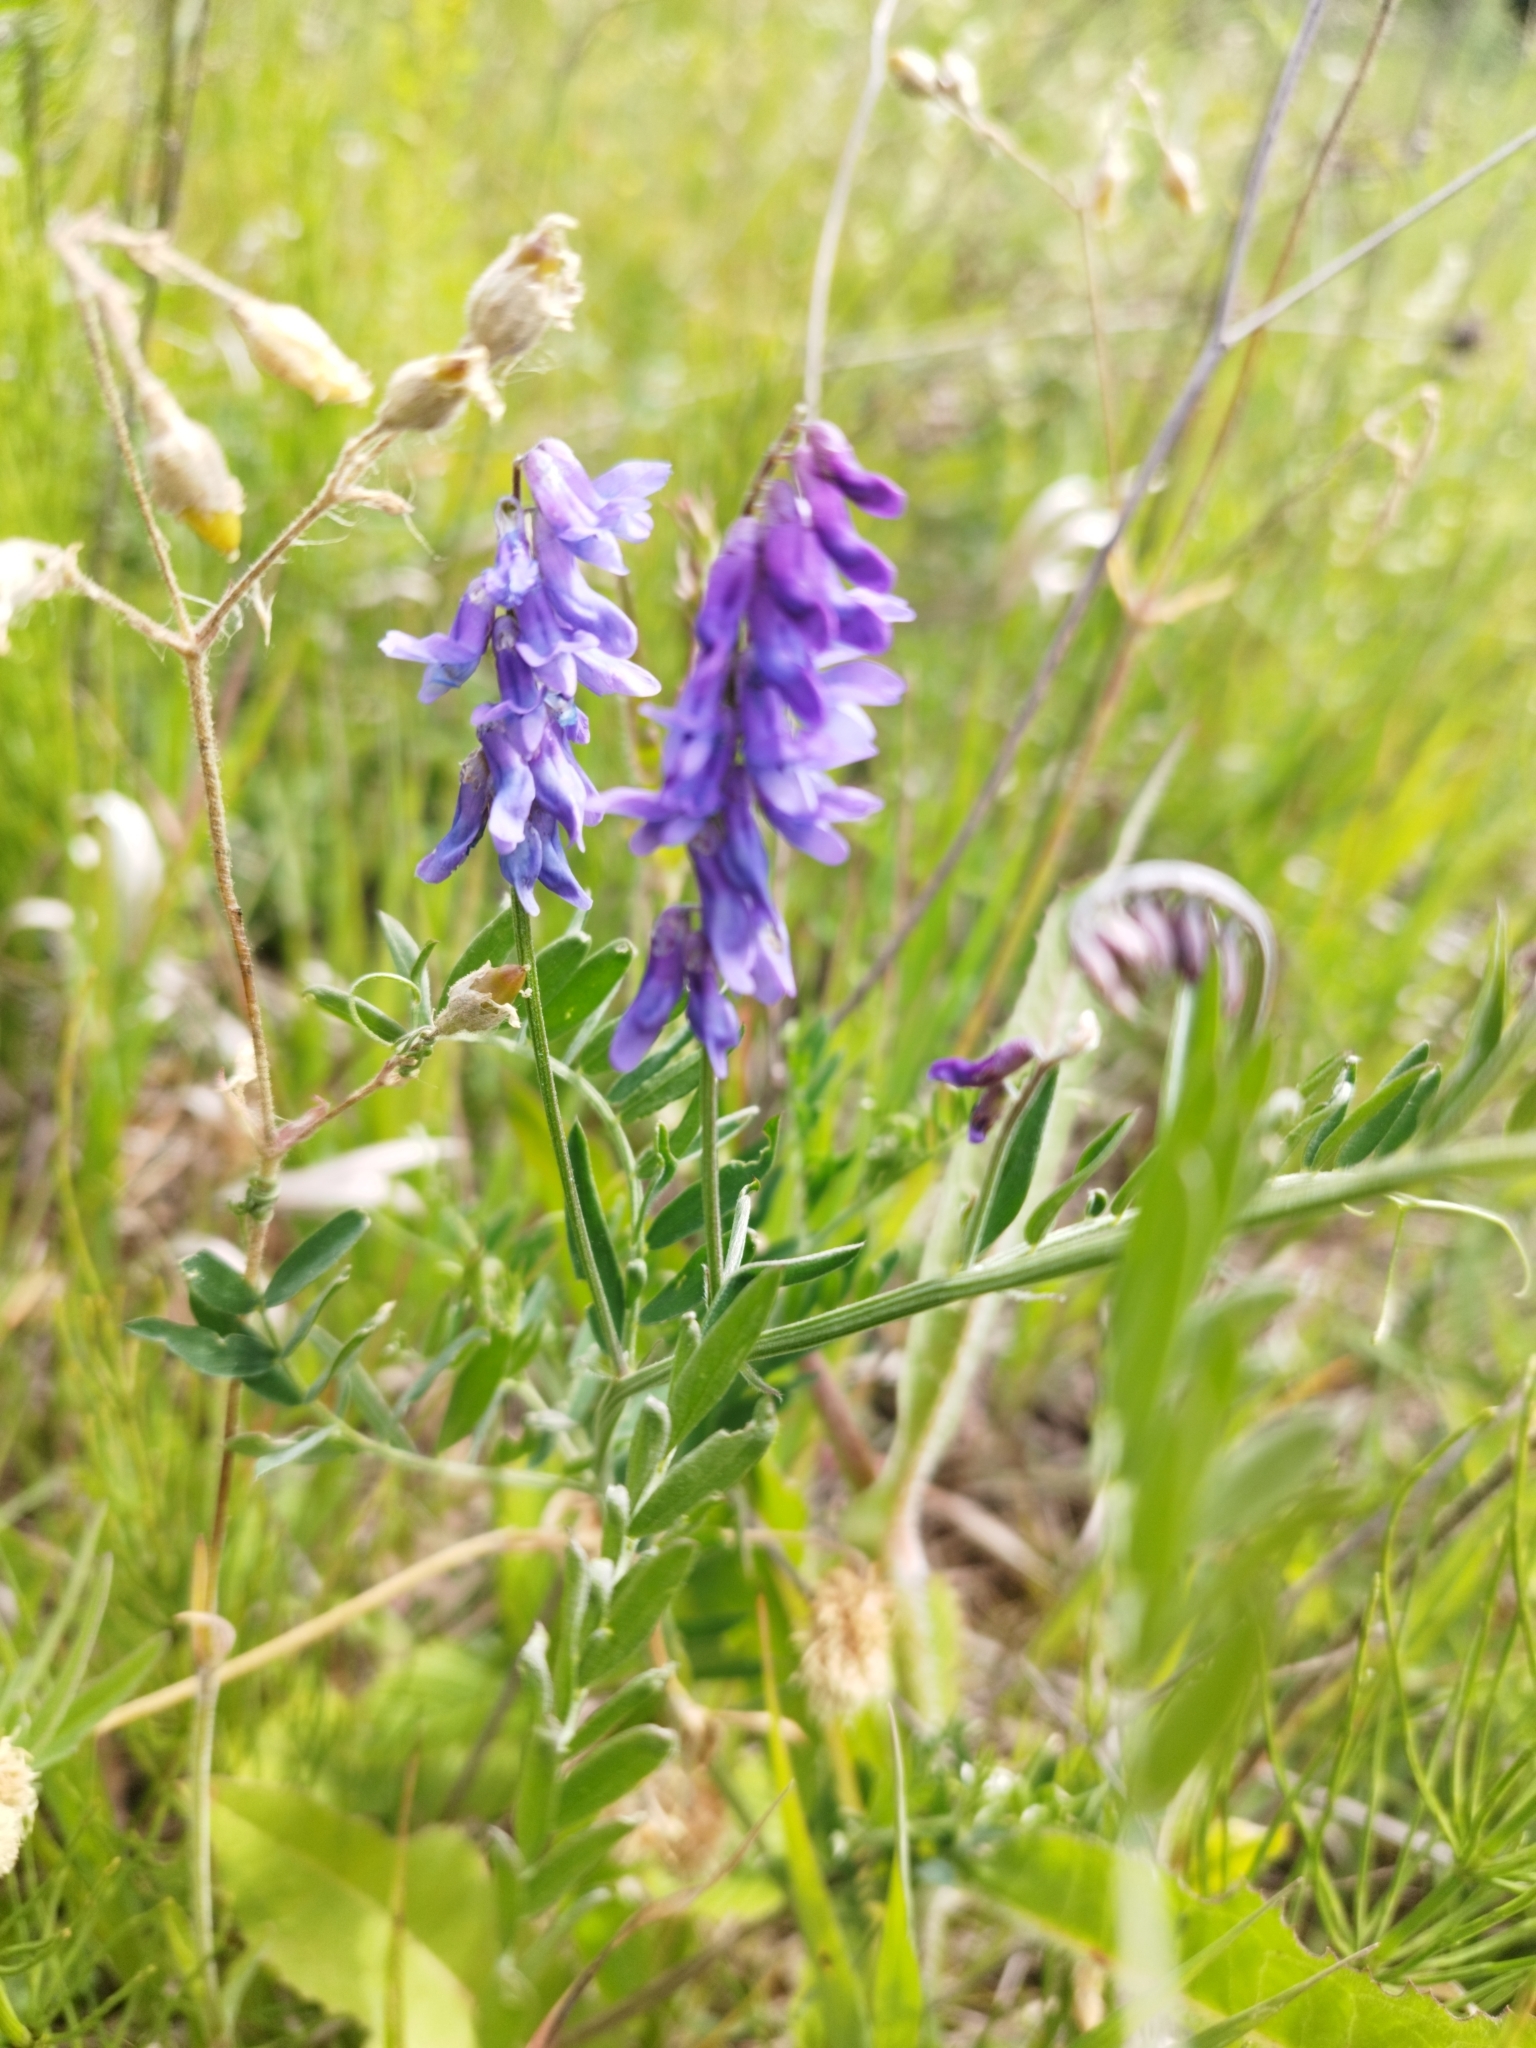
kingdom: Plantae
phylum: Tracheophyta
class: Magnoliopsida
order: Fabales
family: Fabaceae
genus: Vicia
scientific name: Vicia cracca
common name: Bird vetch
